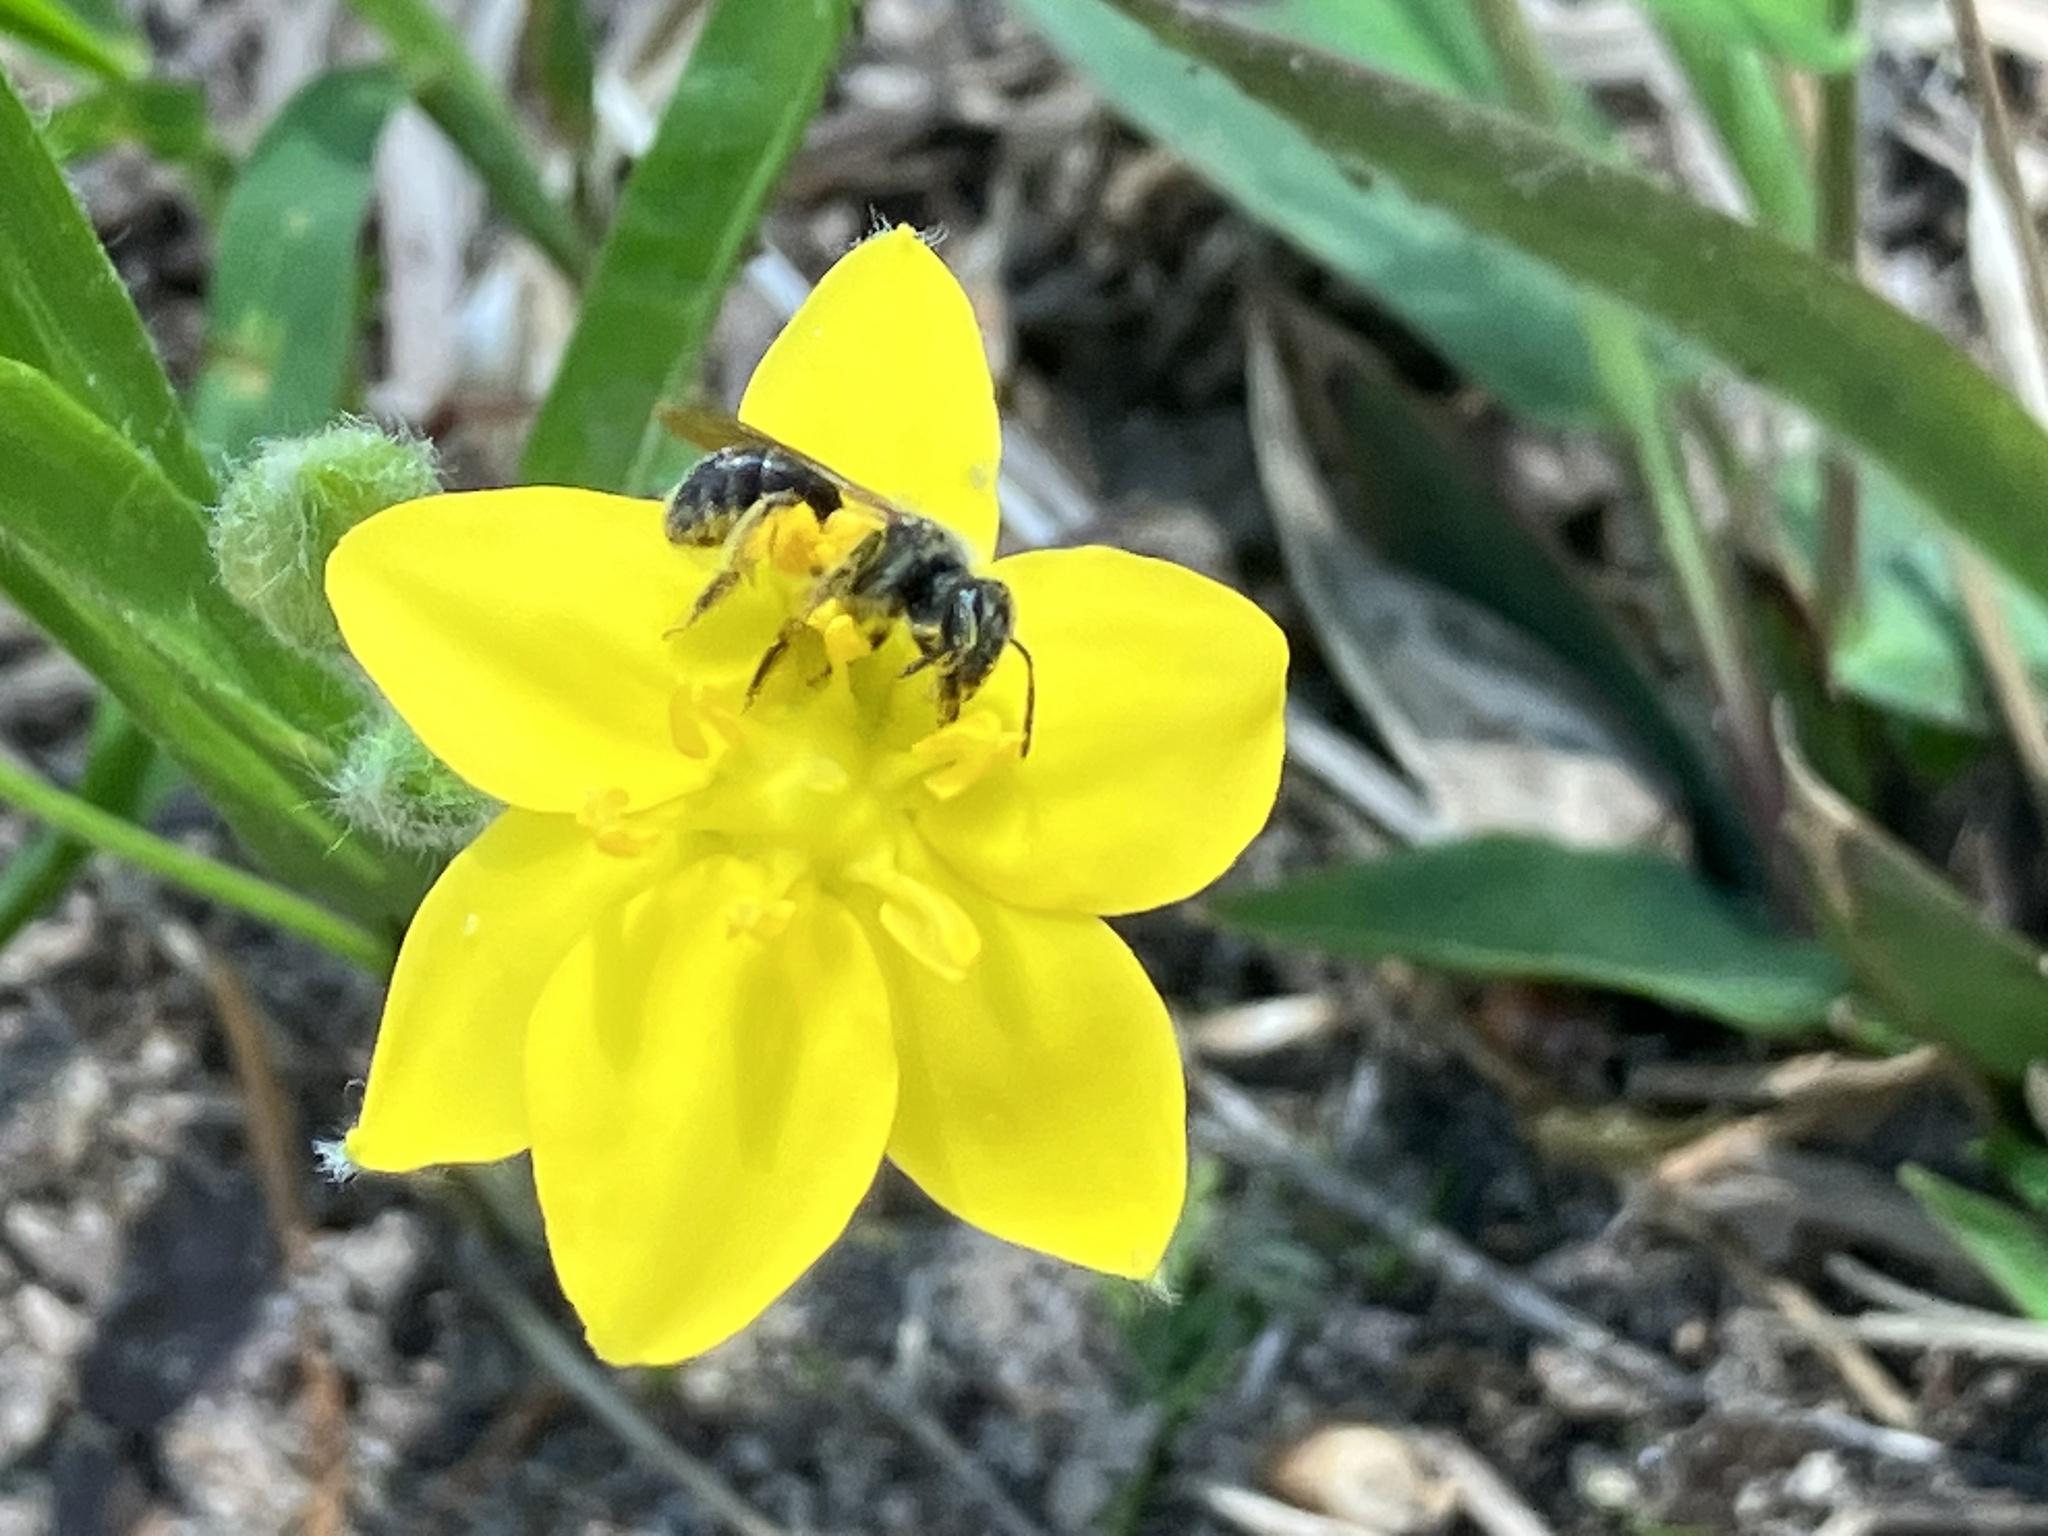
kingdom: Plantae
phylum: Tracheophyta
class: Liliopsida
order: Asparagales
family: Hypoxidaceae
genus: Hypoxis
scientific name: Hypoxis hirsuta
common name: Common goldstar
